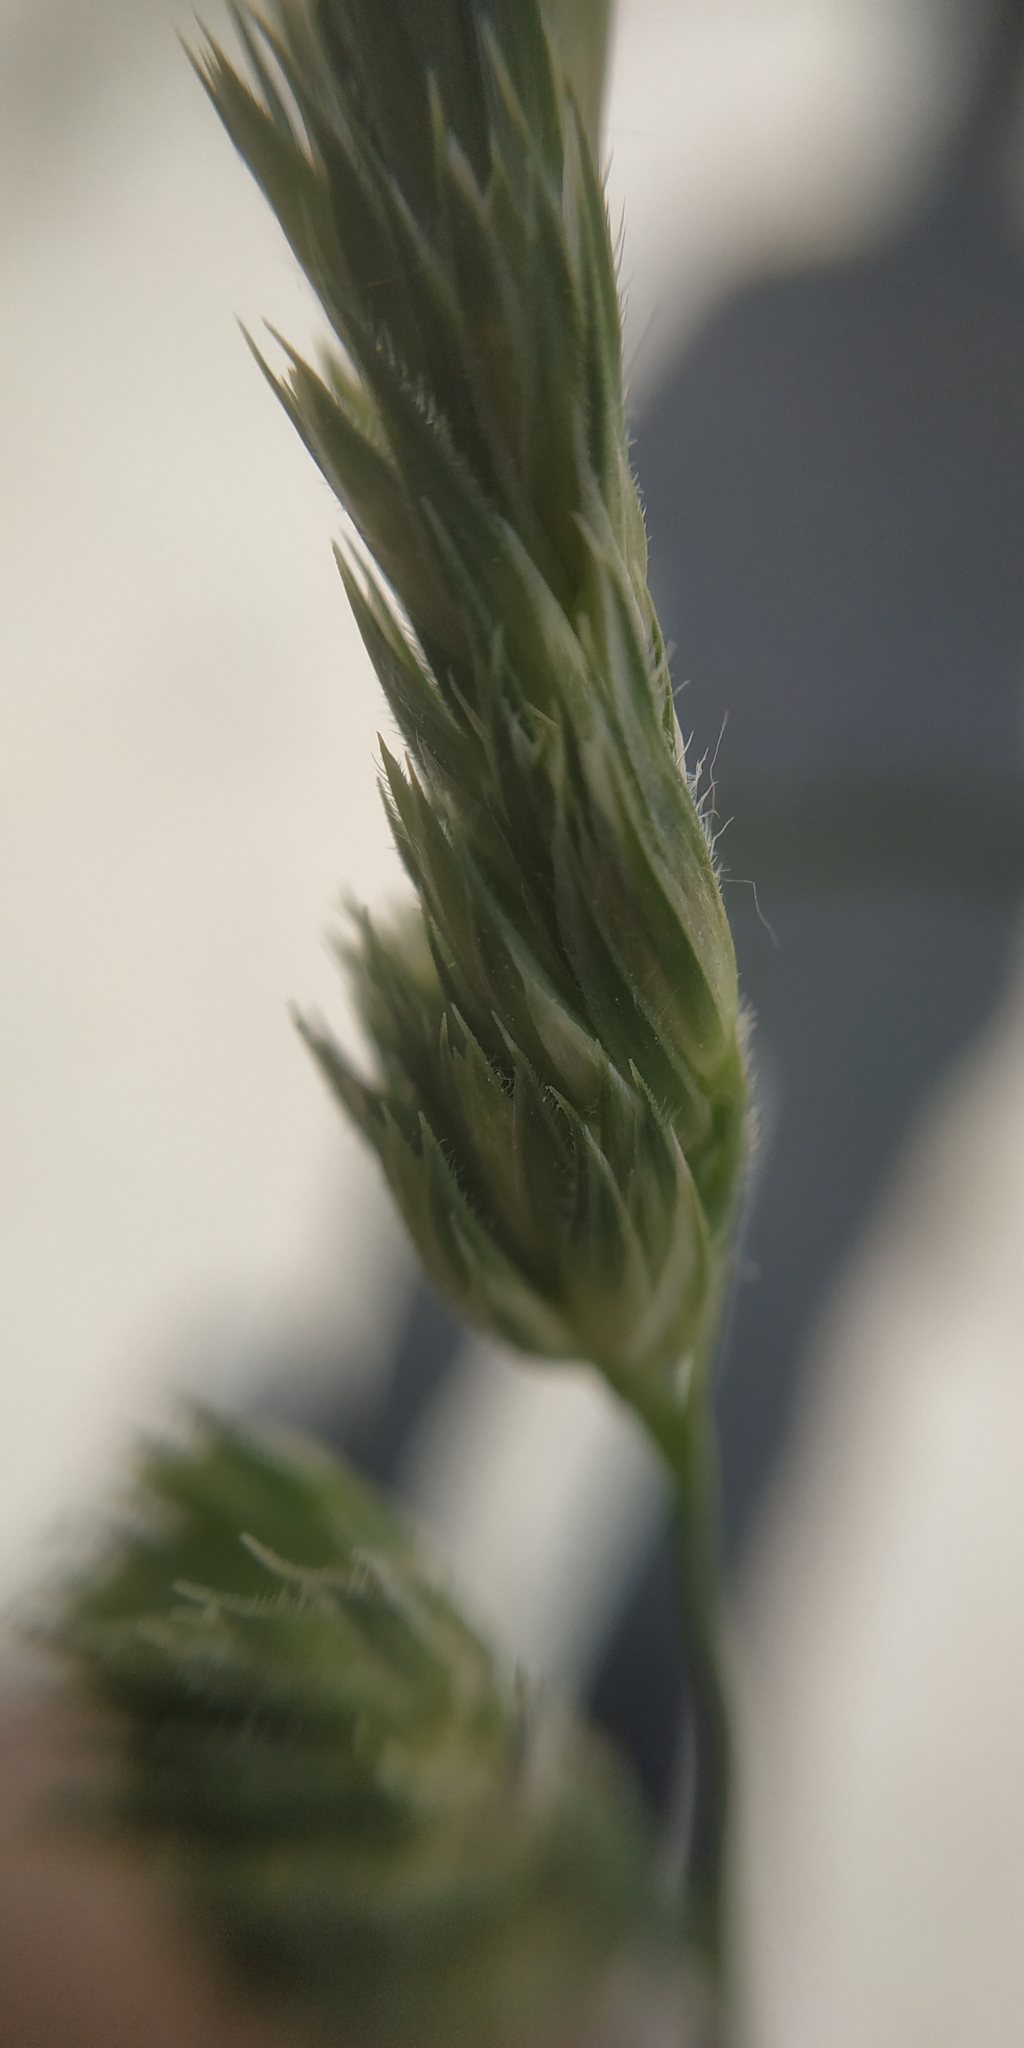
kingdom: Plantae
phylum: Tracheophyta
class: Liliopsida
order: Poales
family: Poaceae
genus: Dactylis
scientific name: Dactylis glomerata
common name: Orchardgrass
